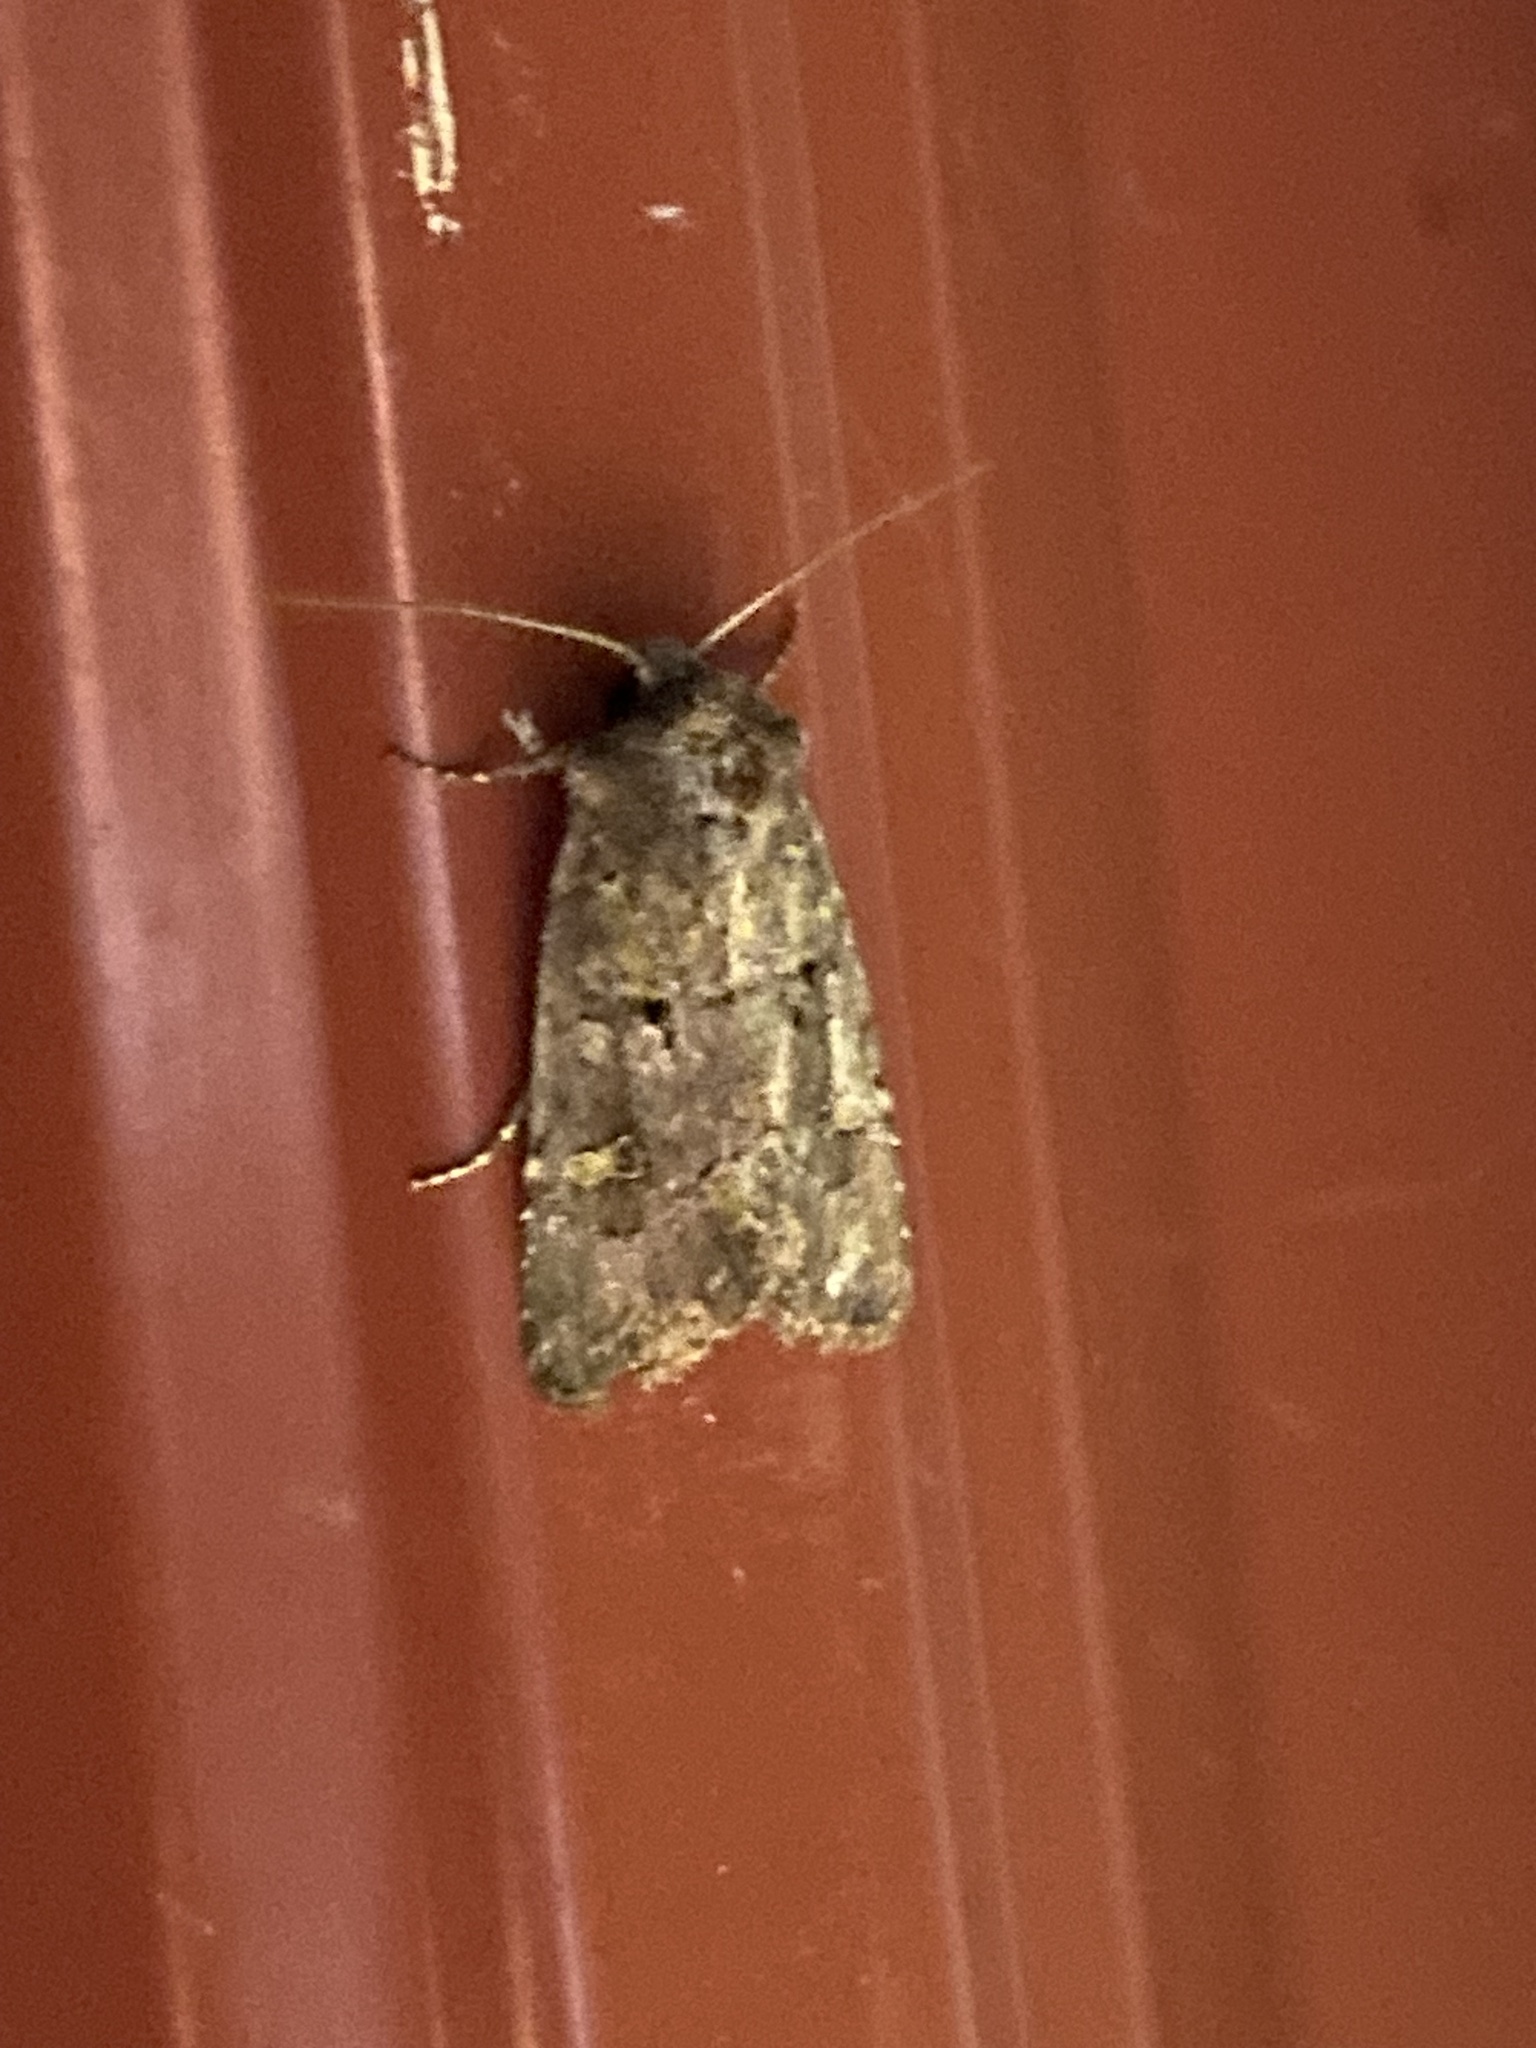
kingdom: Animalia
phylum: Arthropoda
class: Insecta
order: Lepidoptera
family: Noctuidae
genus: Lacinipolia
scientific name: Lacinipolia renigera
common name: Kidney-spotted minor
